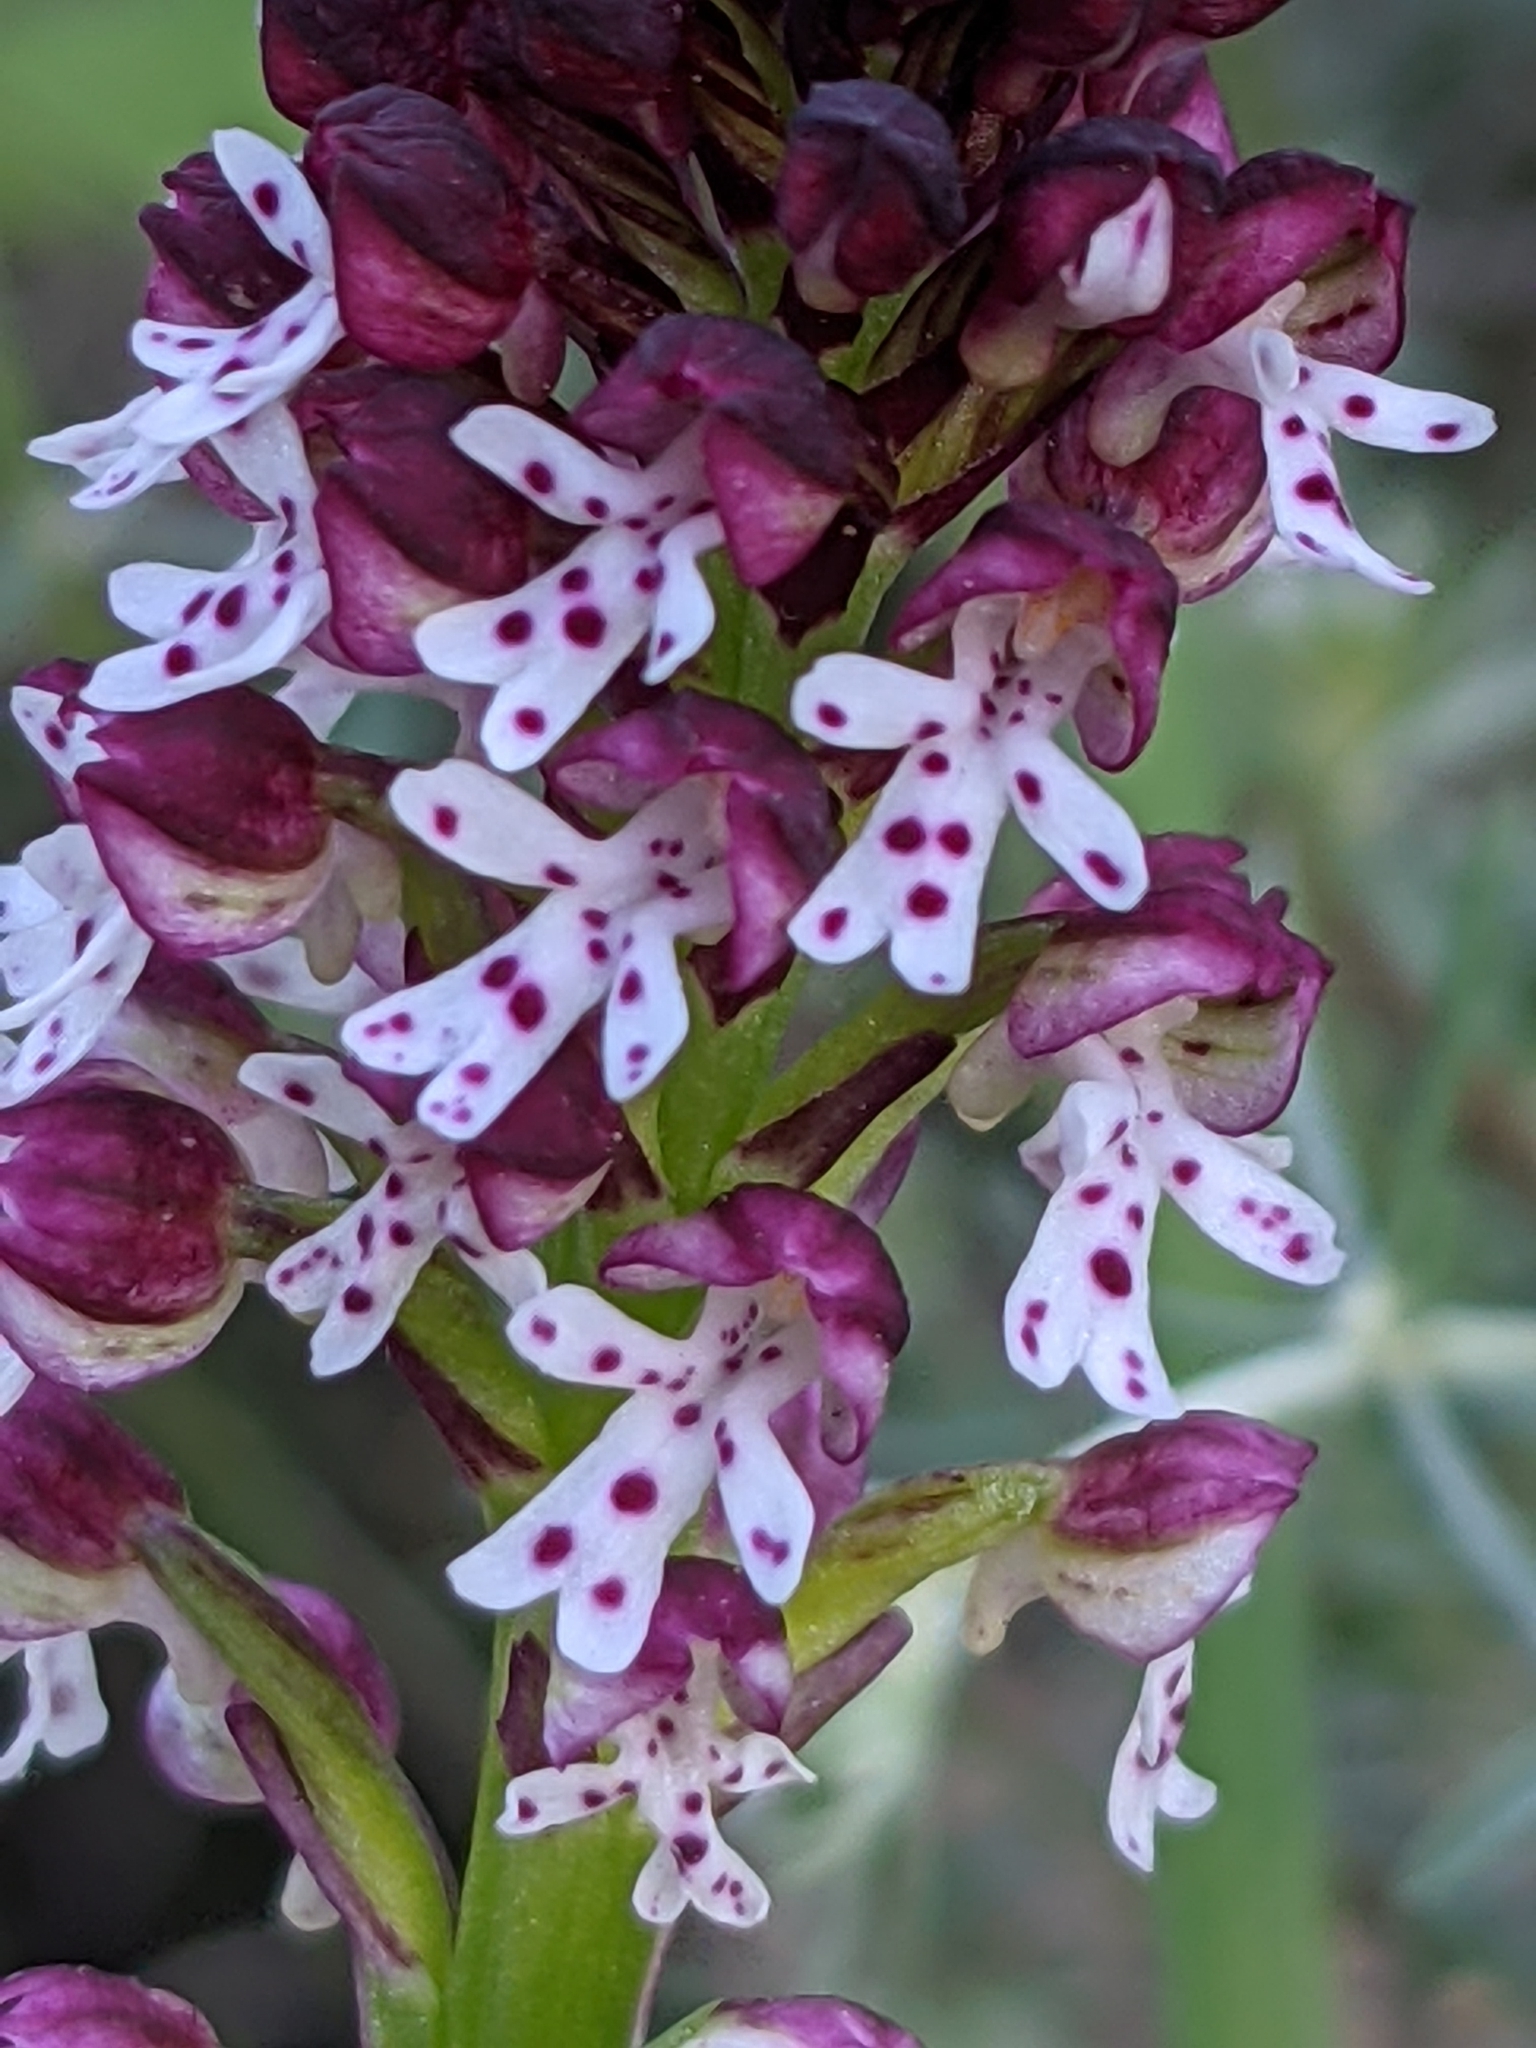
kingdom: Plantae
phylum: Tracheophyta
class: Liliopsida
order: Asparagales
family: Orchidaceae
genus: Neotinea
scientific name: Neotinea ustulata
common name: Burnt orchid
